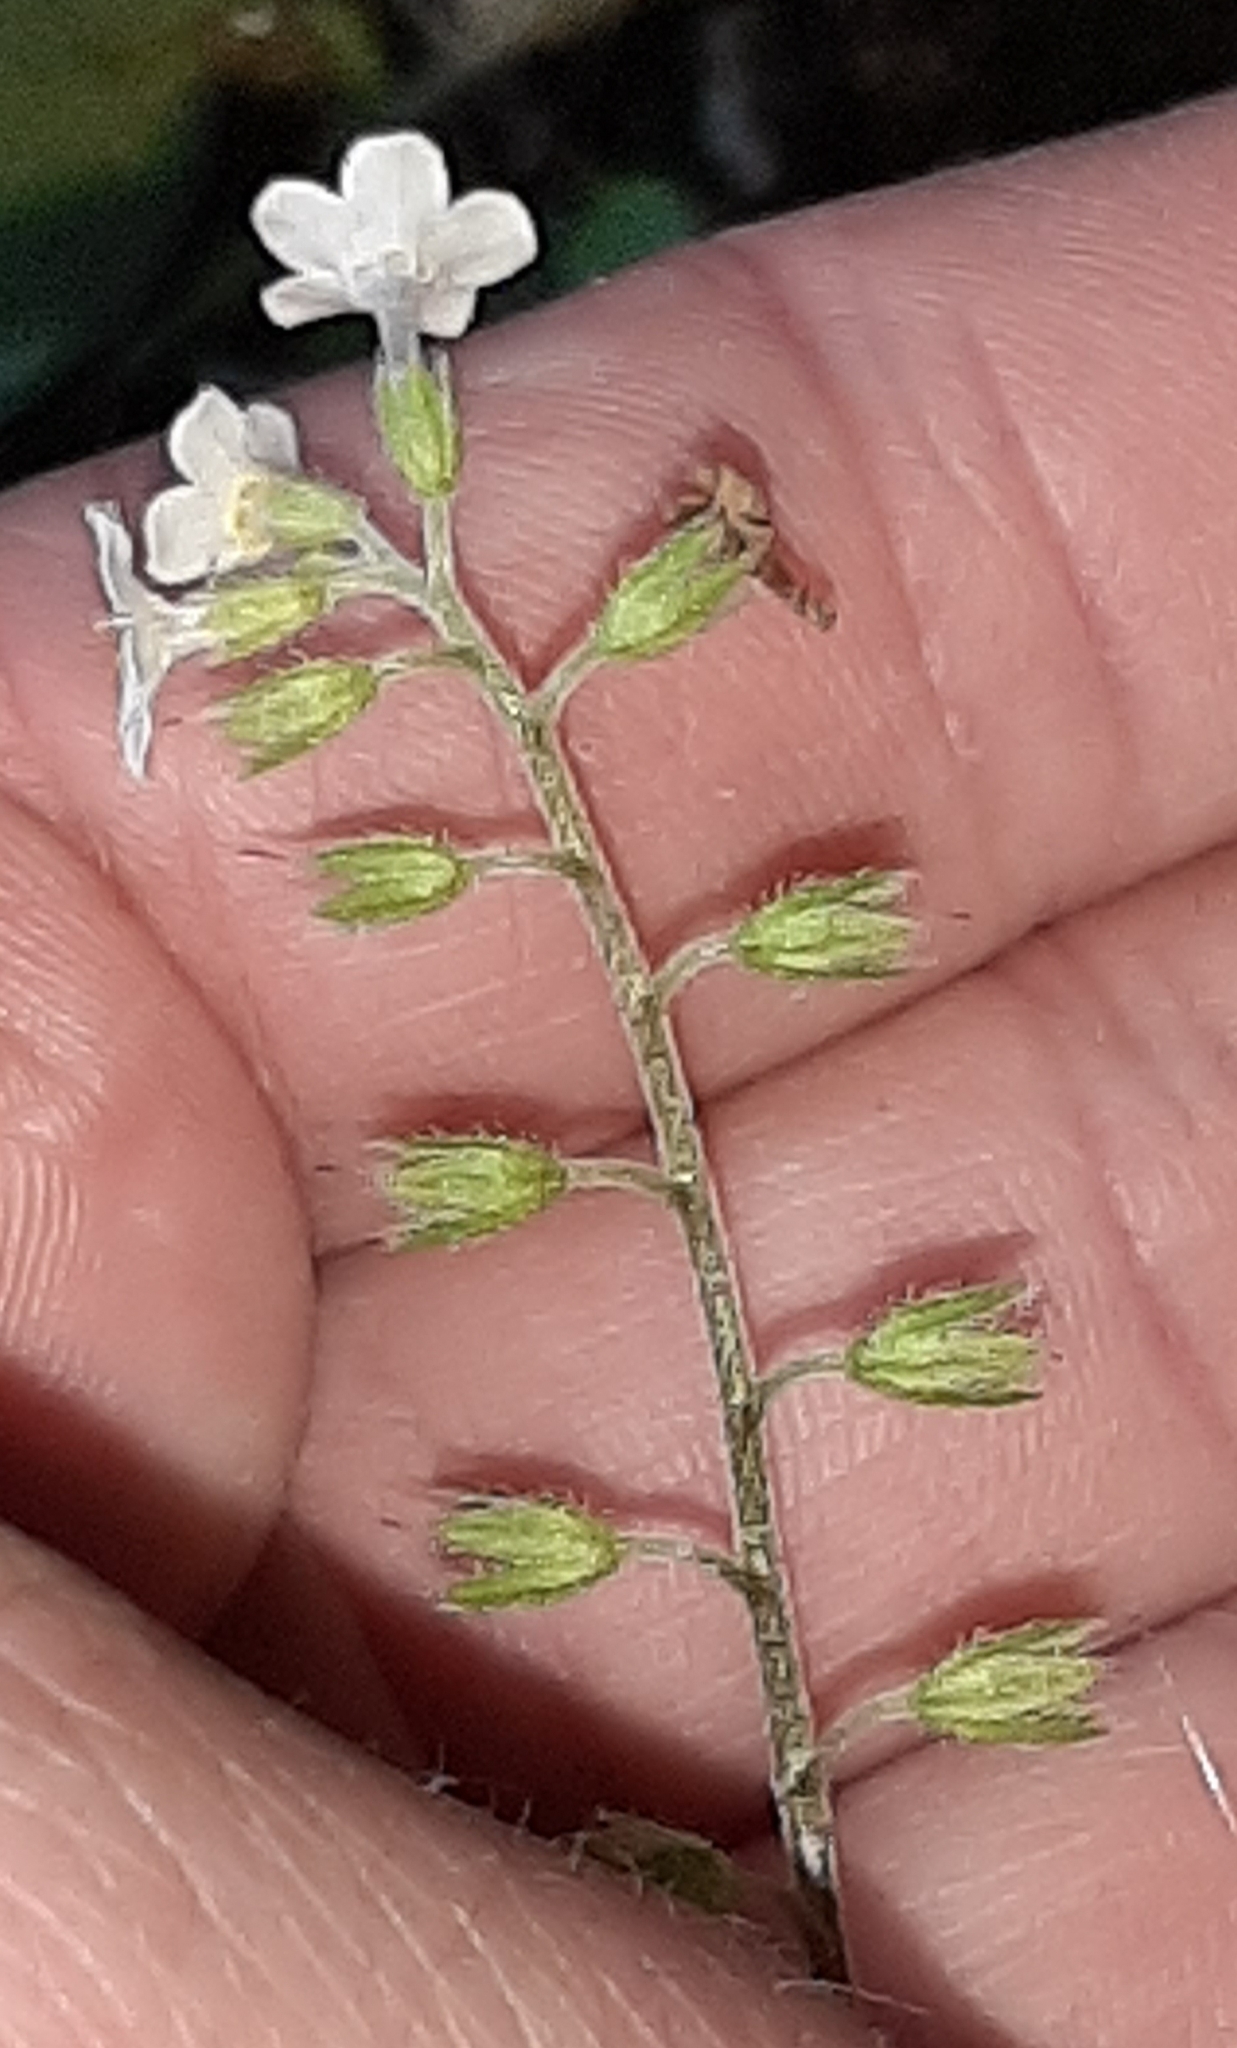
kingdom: Plantae
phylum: Tracheophyta
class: Magnoliopsida
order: Boraginales
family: Boraginaceae
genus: Myosotis
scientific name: Myosotis venosa
